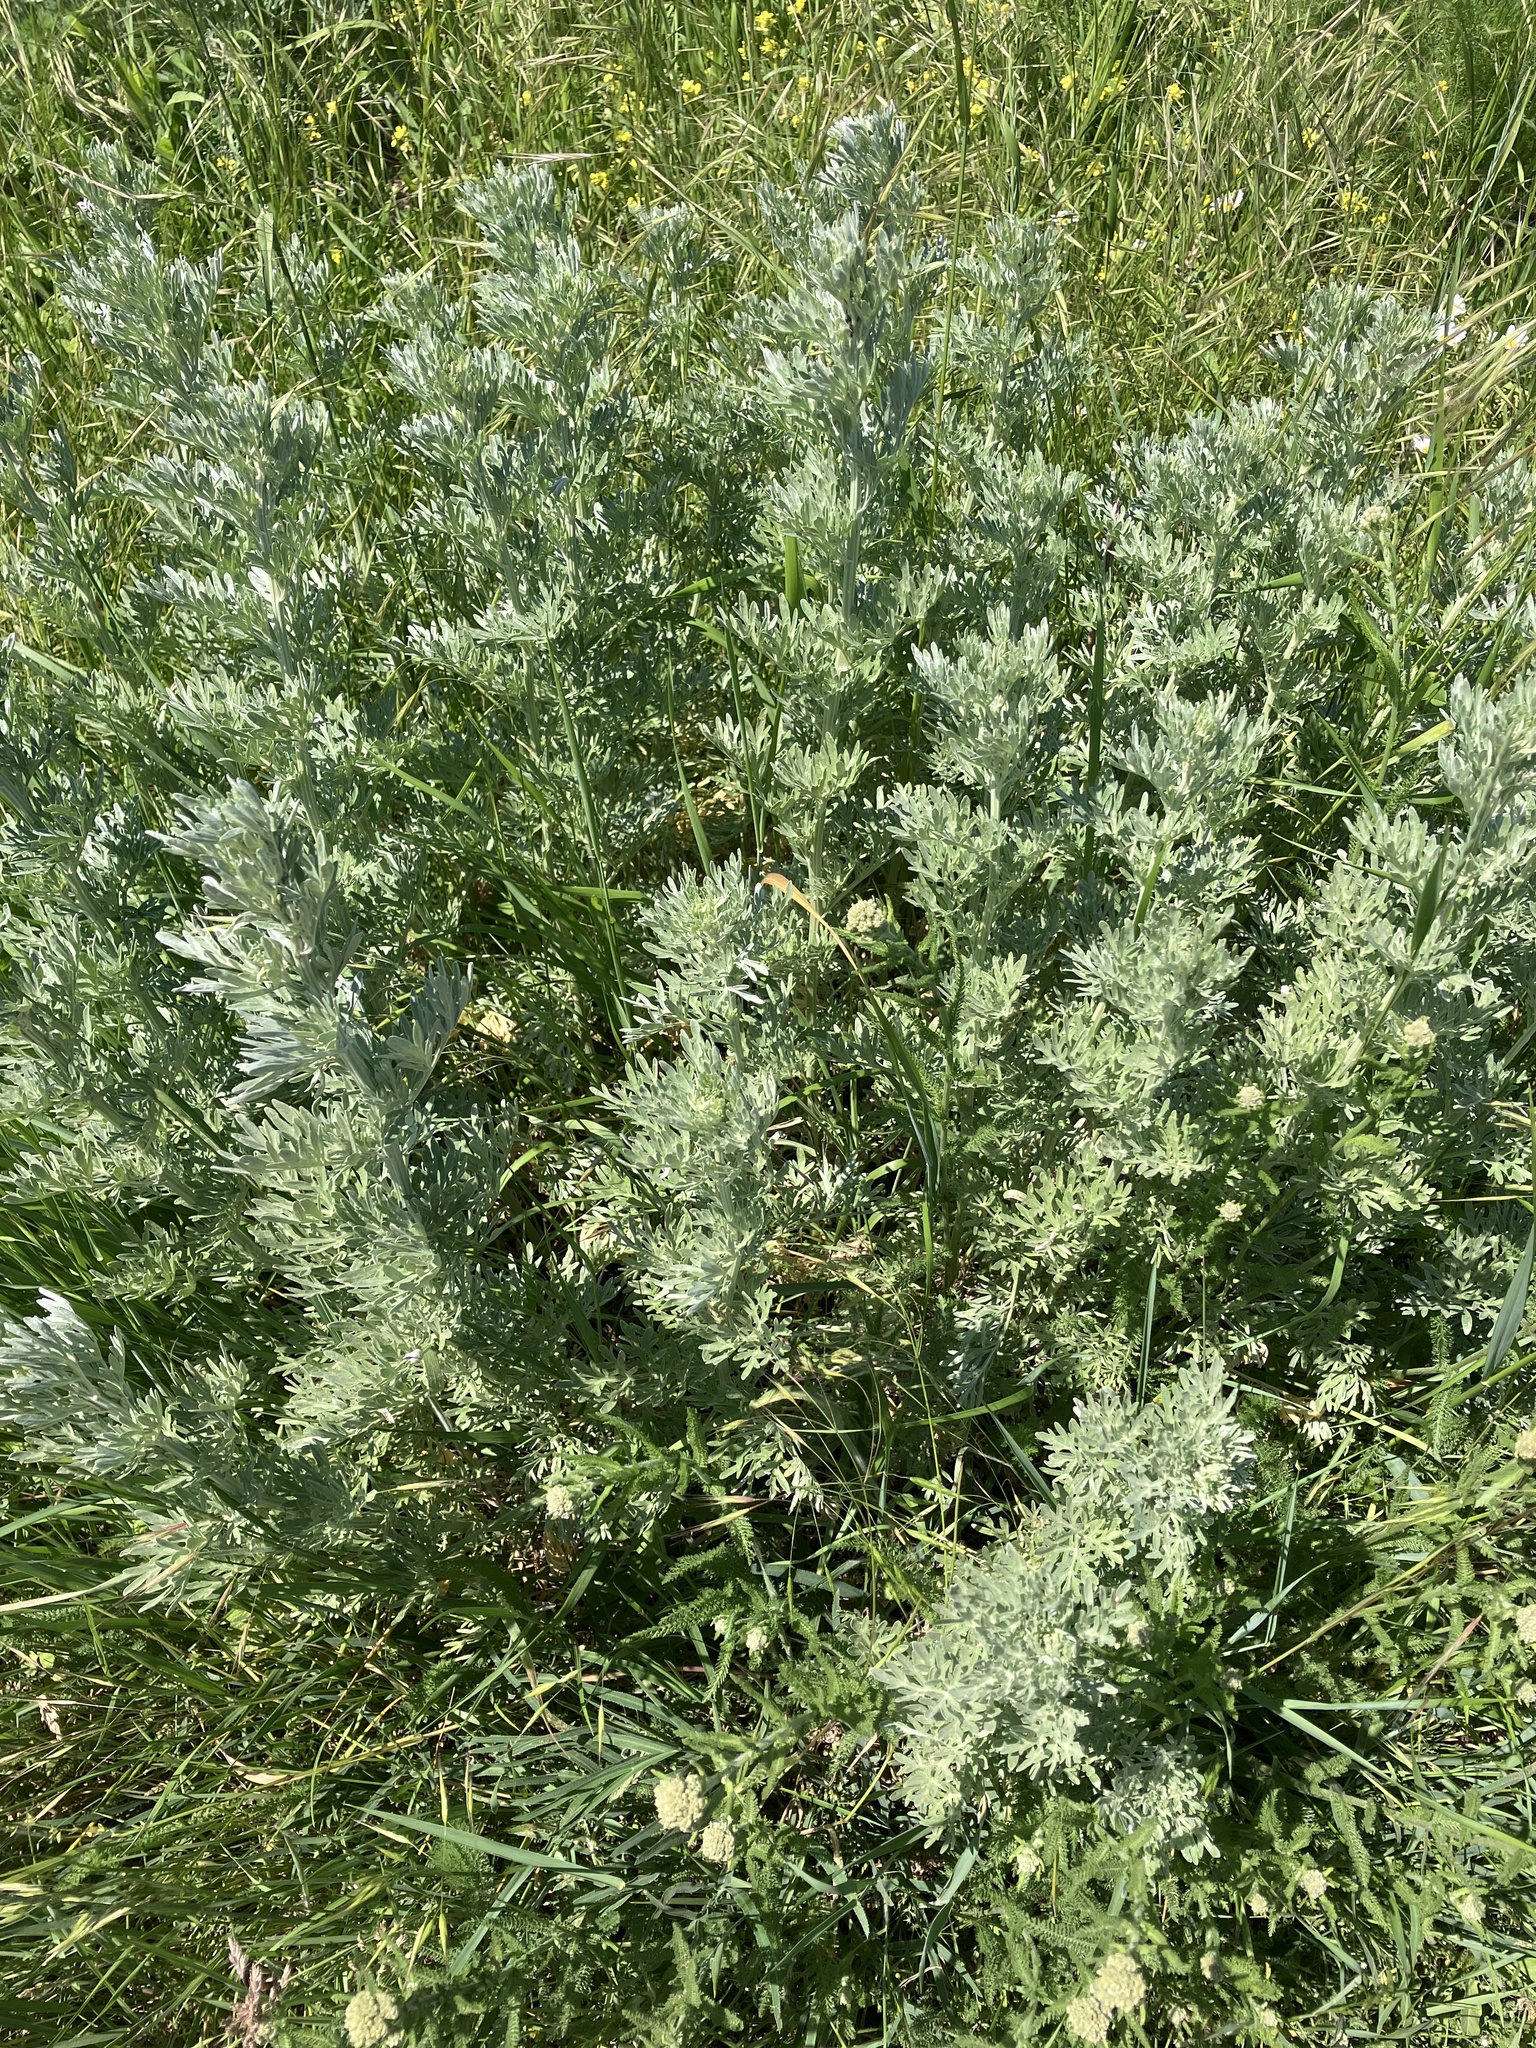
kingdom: Plantae
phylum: Tracheophyta
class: Magnoliopsida
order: Asterales
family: Asteraceae
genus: Artemisia
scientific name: Artemisia absinthium
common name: Wormwood
